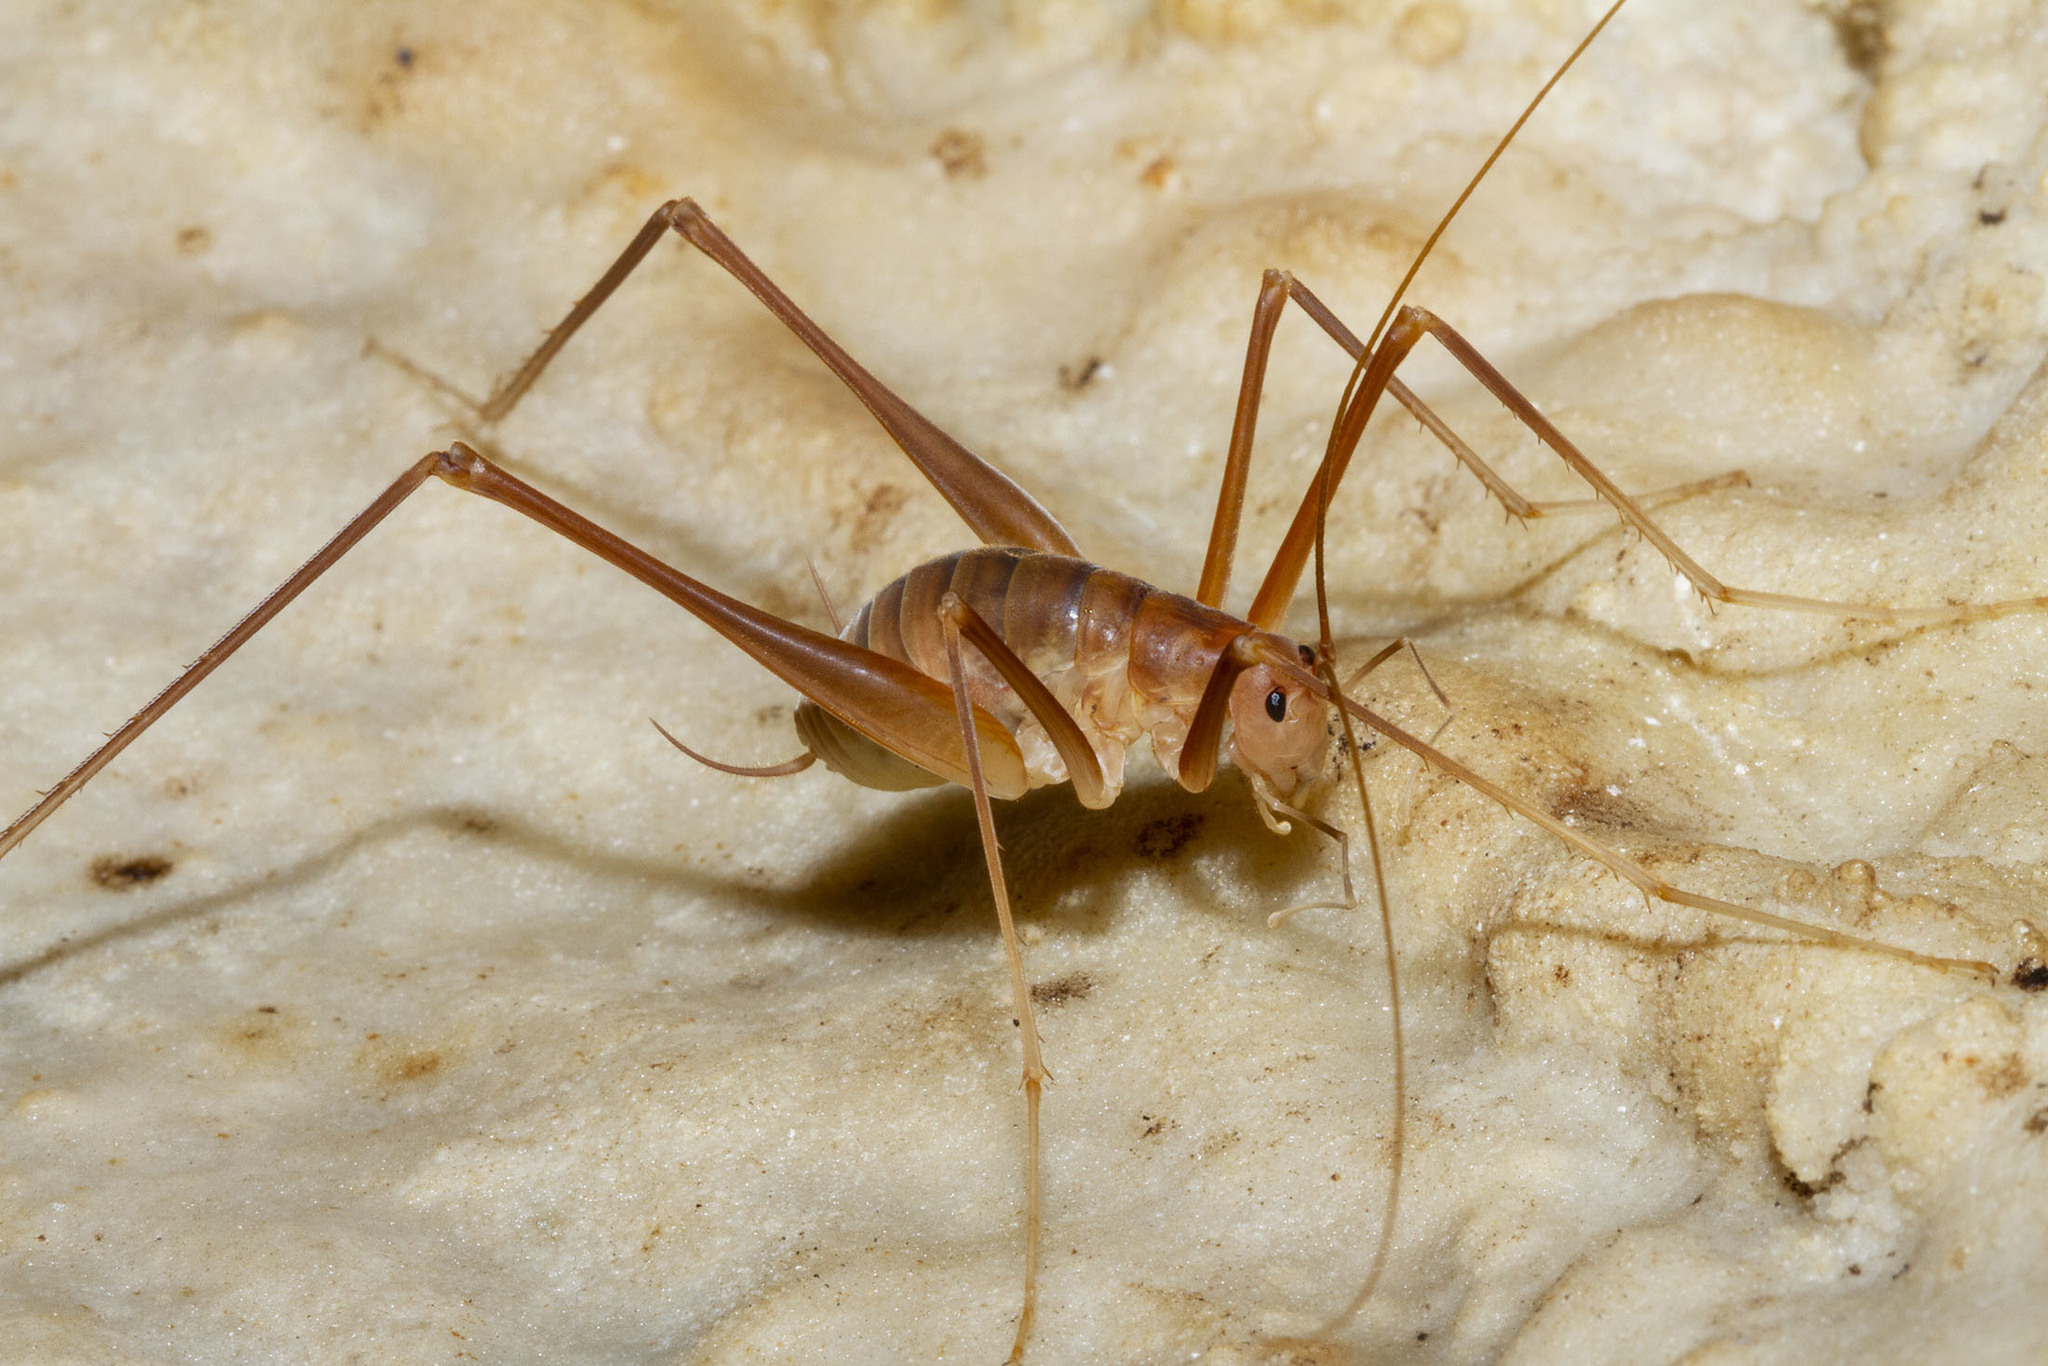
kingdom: Animalia
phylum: Arthropoda
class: Insecta
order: Orthoptera
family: Rhaphidophoridae
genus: Hadenoecus
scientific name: Hadenoecus subterraneus
